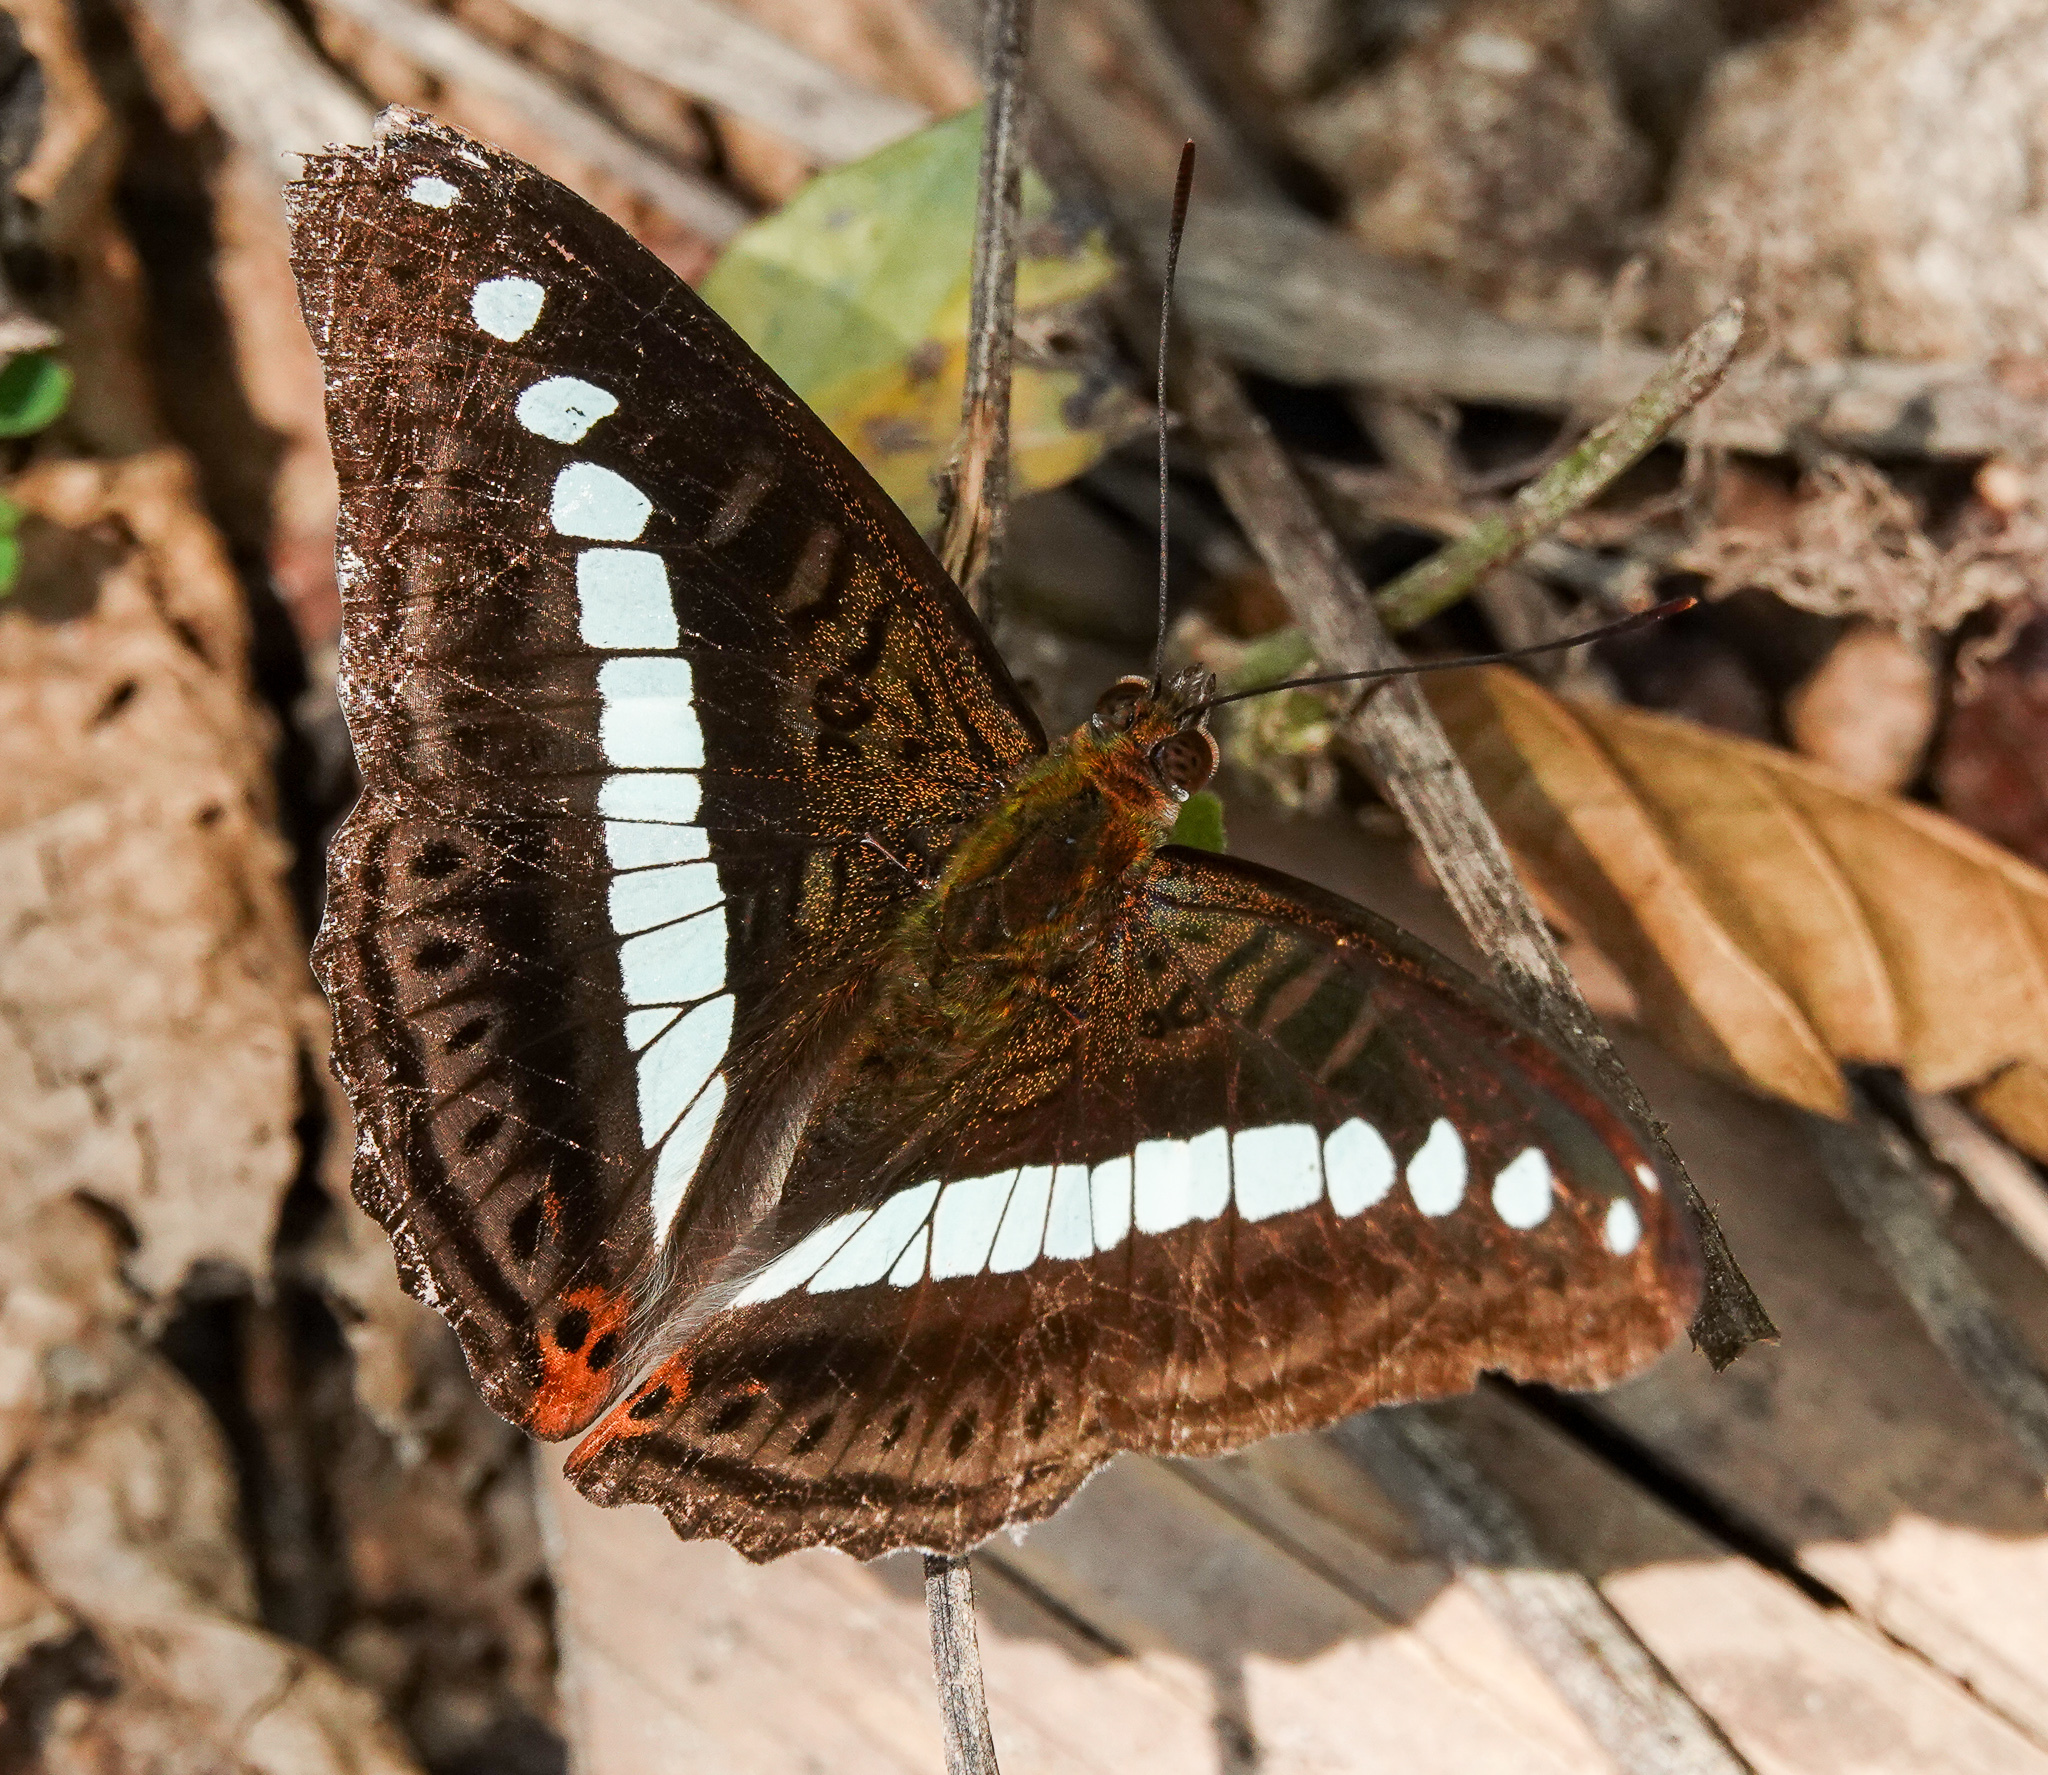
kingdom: Animalia
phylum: Arthropoda
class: Insecta
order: Lepidoptera
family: Nymphalidae
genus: Limenitis
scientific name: Limenitis Sumalia daraxa
